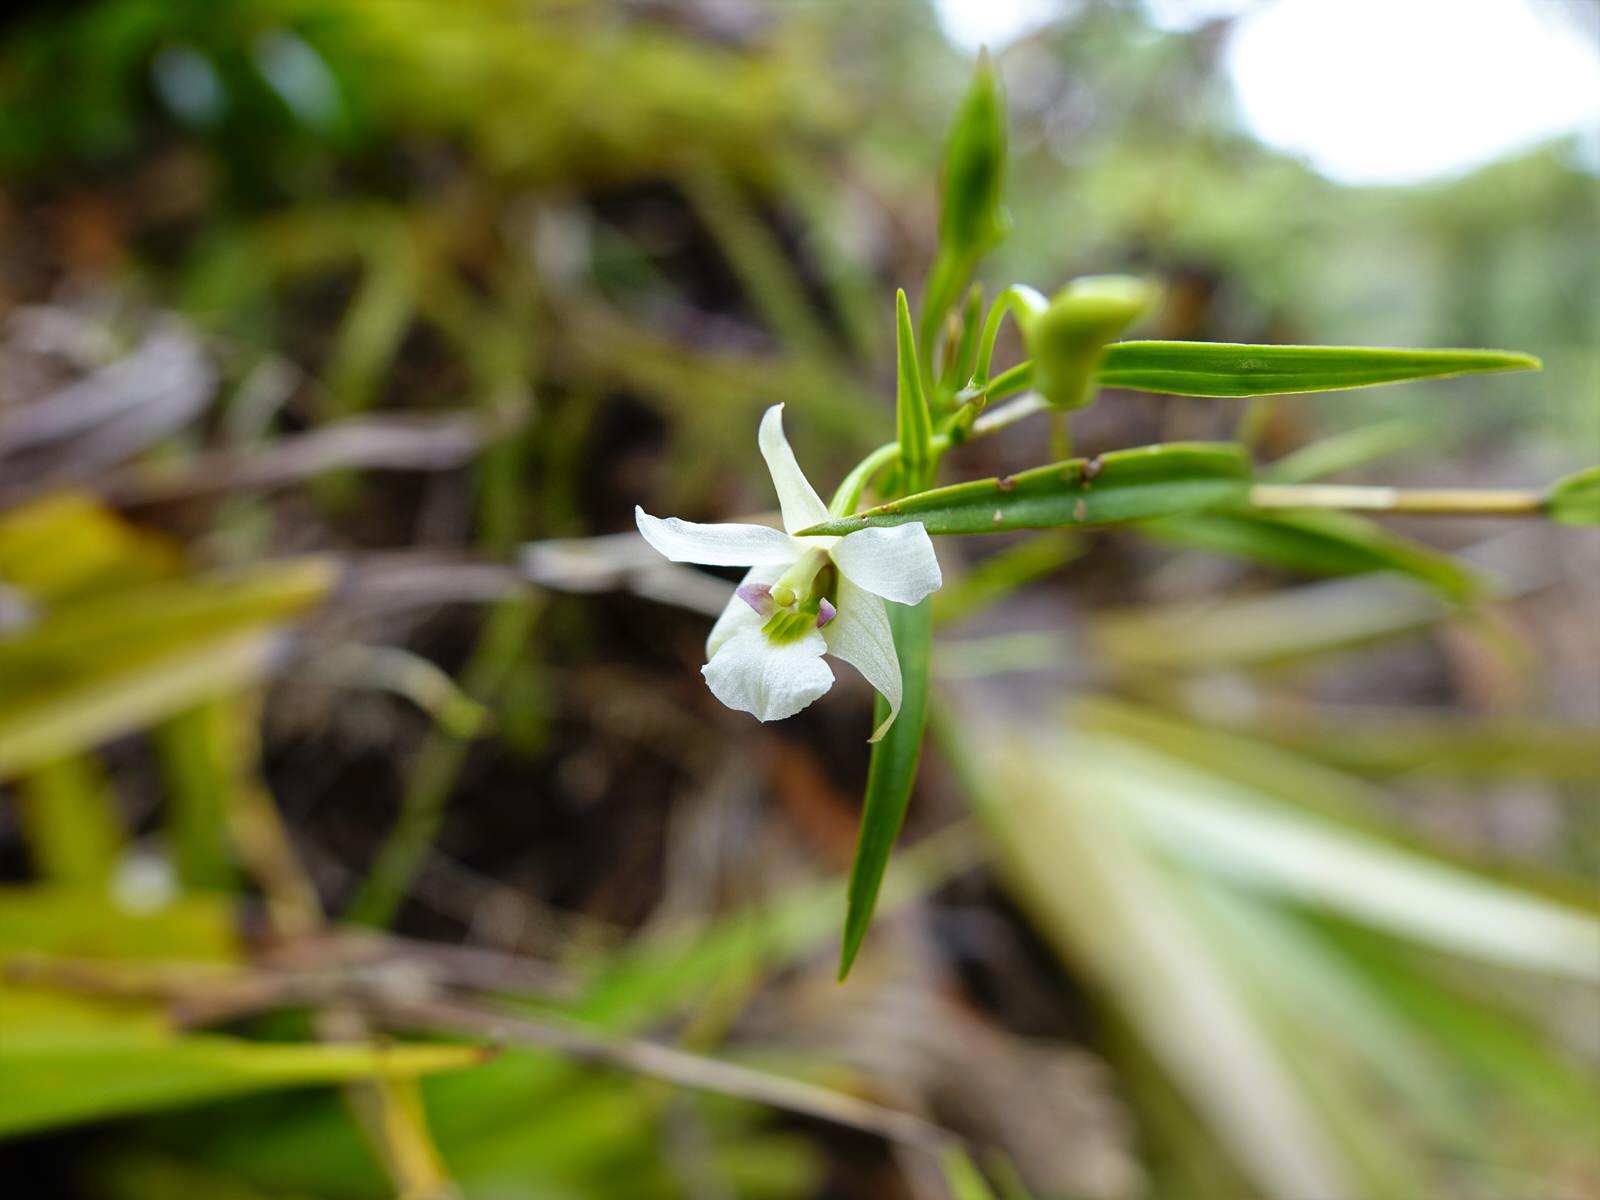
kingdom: Plantae
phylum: Tracheophyta
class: Liliopsida
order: Asparagales
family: Orchidaceae
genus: Dendrobium
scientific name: Dendrobium cunninghamii
